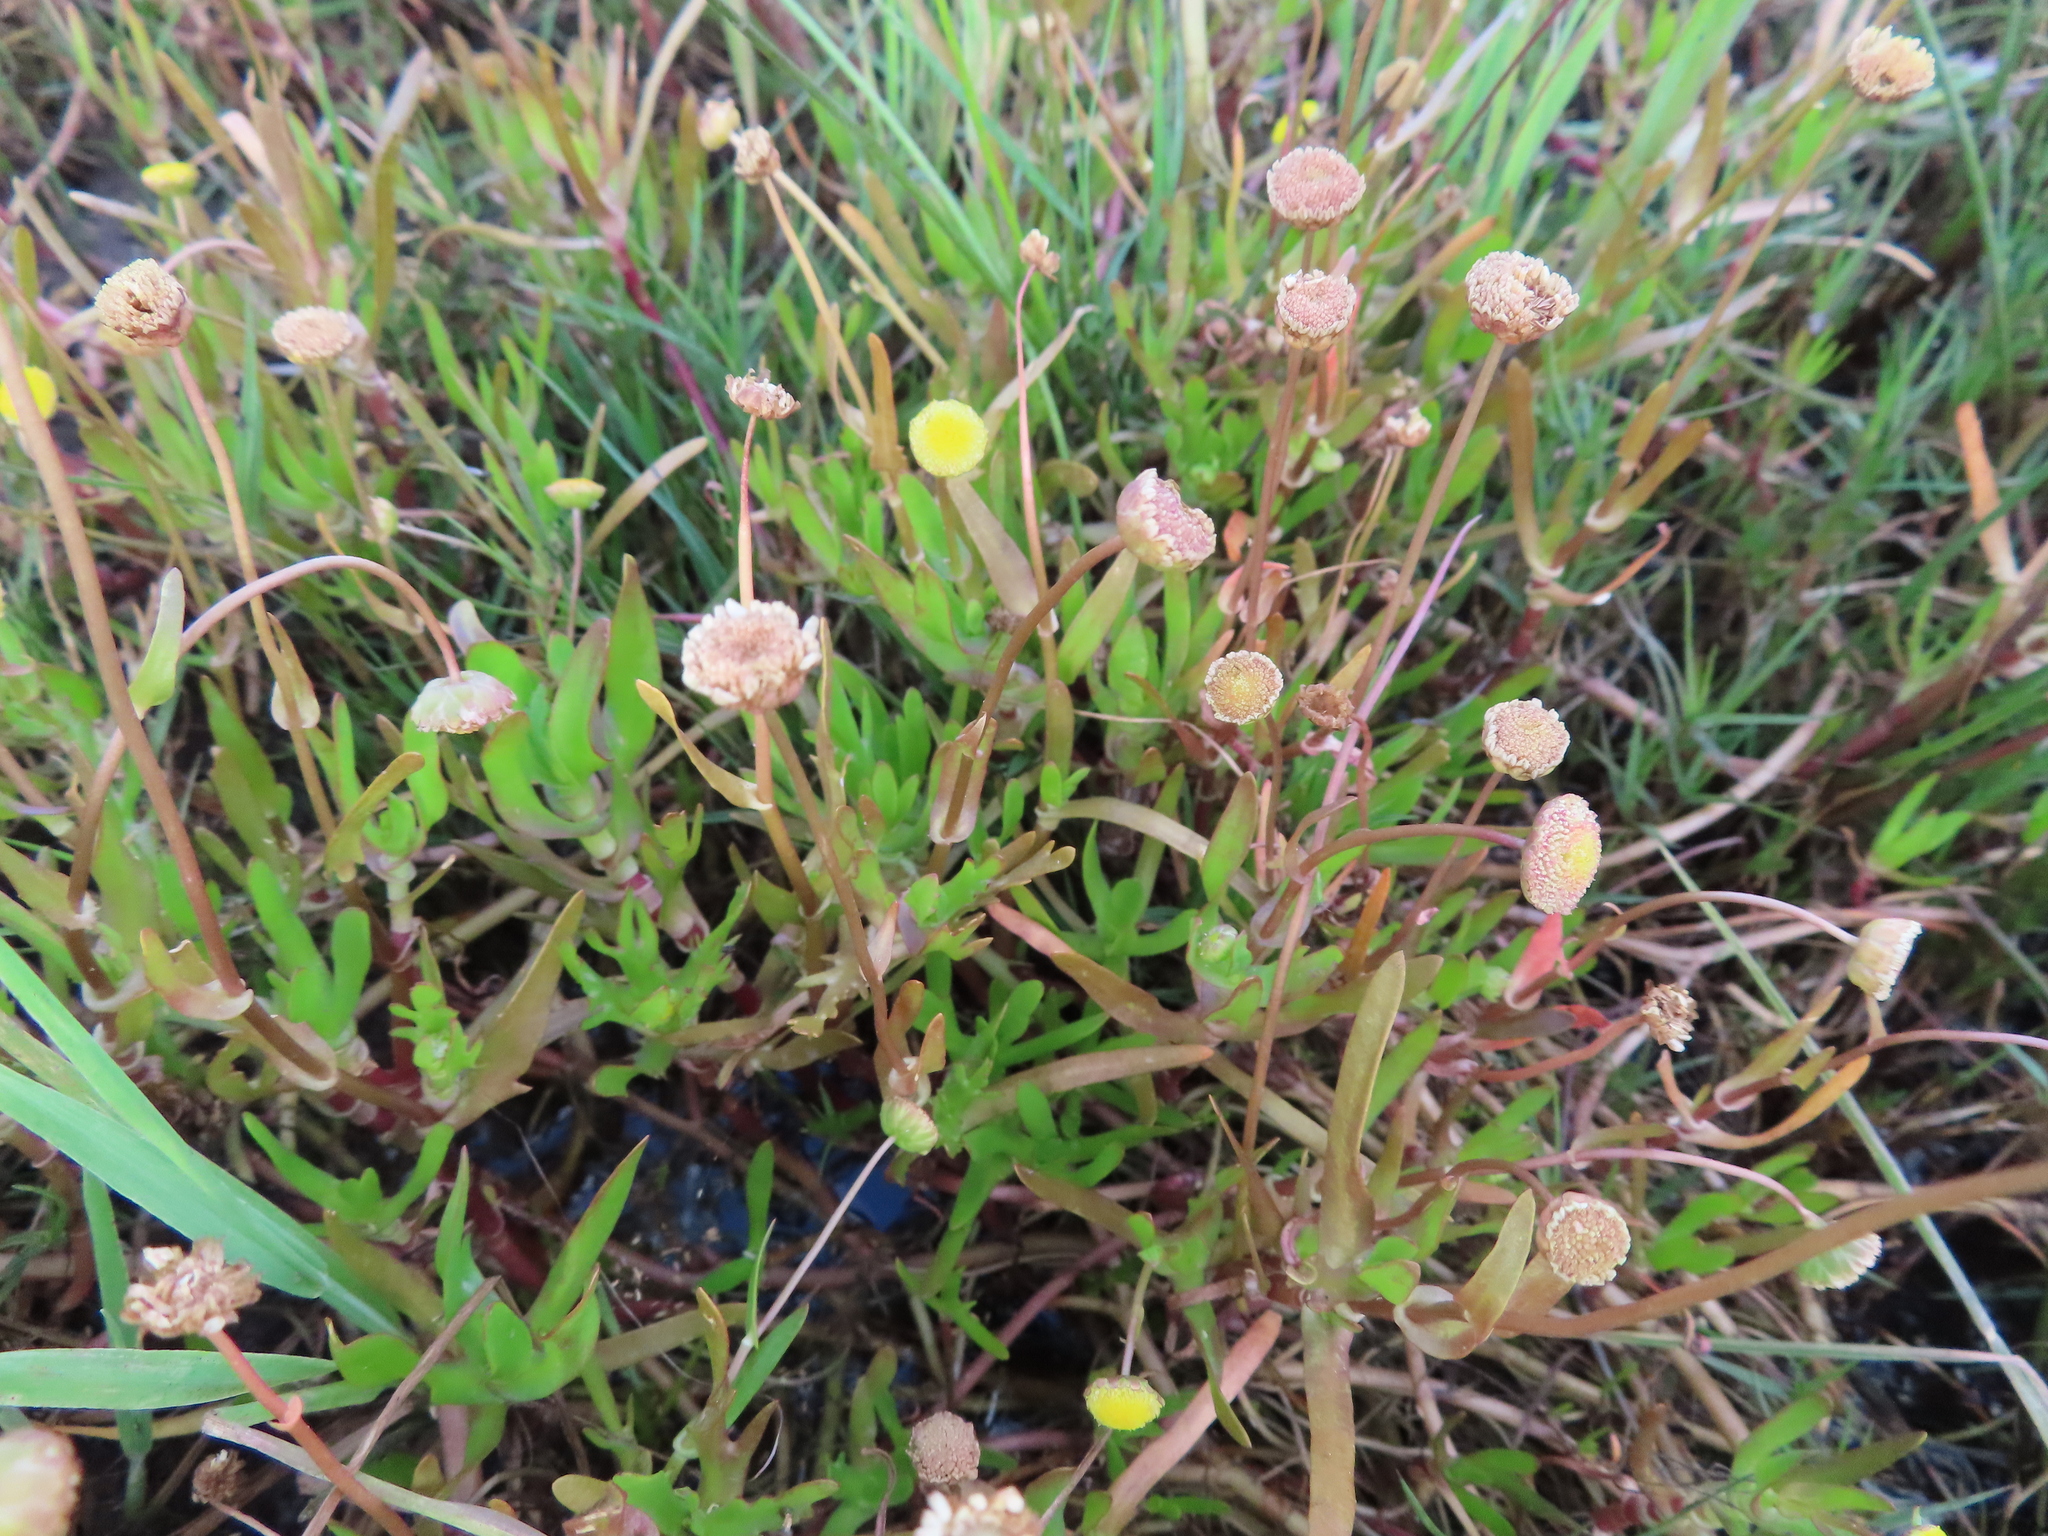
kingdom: Plantae
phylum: Tracheophyta
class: Magnoliopsida
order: Asterales
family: Asteraceae
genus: Cotula
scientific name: Cotula coronopifolia
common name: Buttonweed
